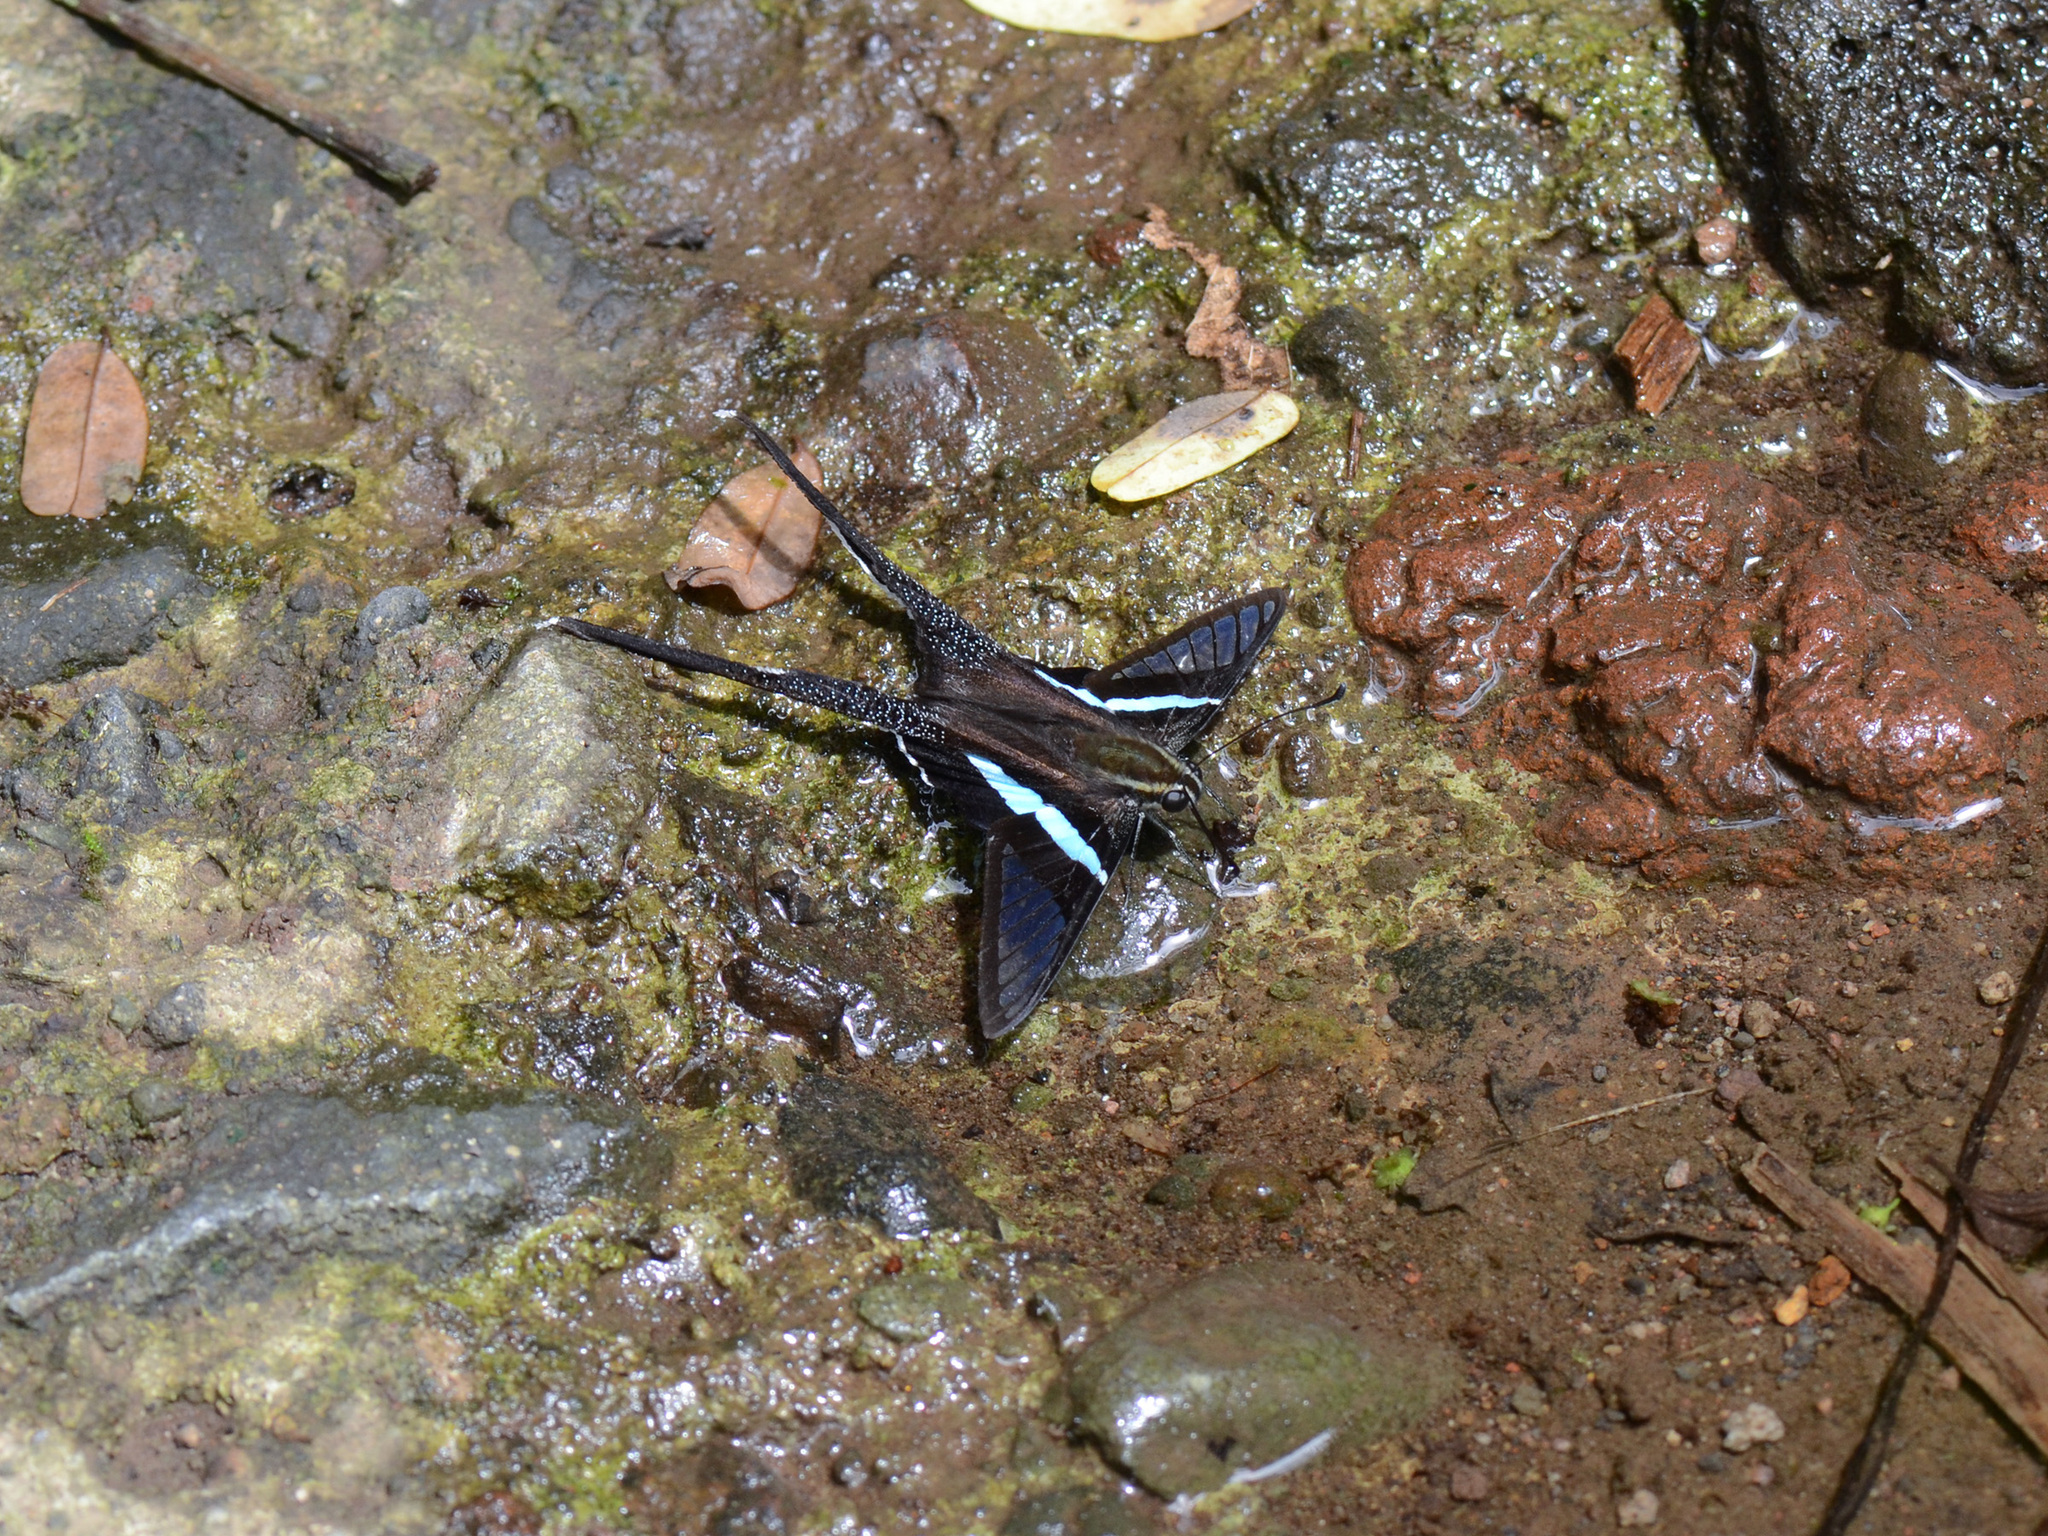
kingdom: Animalia
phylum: Arthropoda
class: Insecta
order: Lepidoptera
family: Papilionidae
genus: Lamproptera
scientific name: Lamproptera meges
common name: Green dragontail
